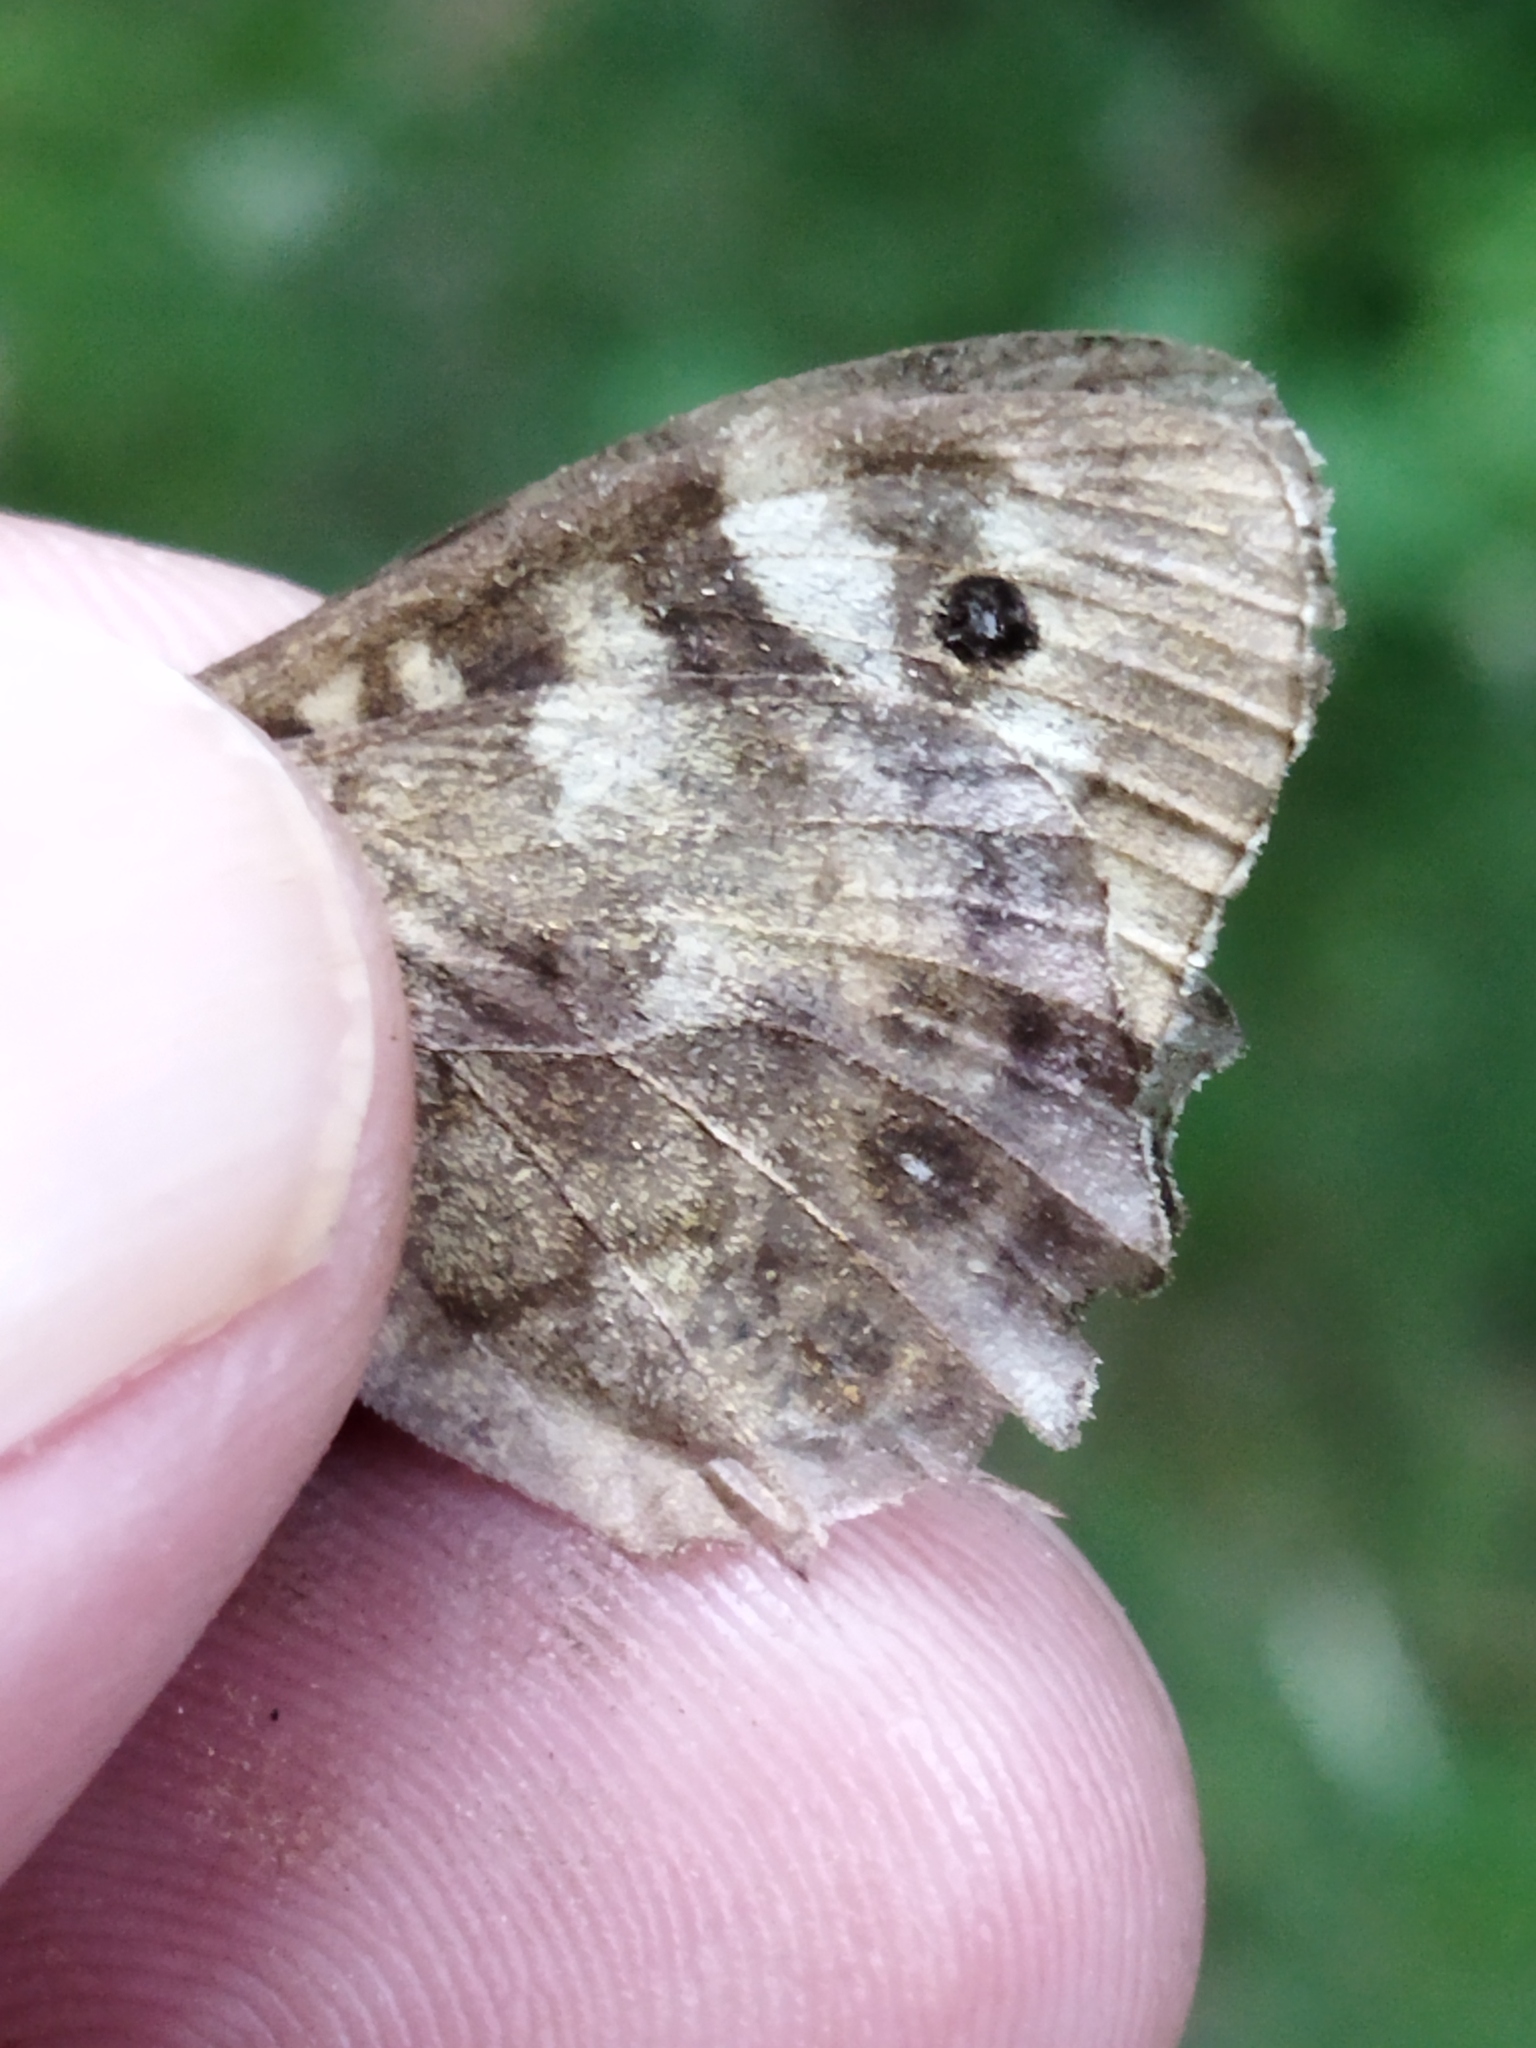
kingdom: Animalia
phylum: Arthropoda
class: Insecta
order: Lepidoptera
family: Nymphalidae
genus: Pararge
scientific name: Pararge aegeria
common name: Speckled wood
